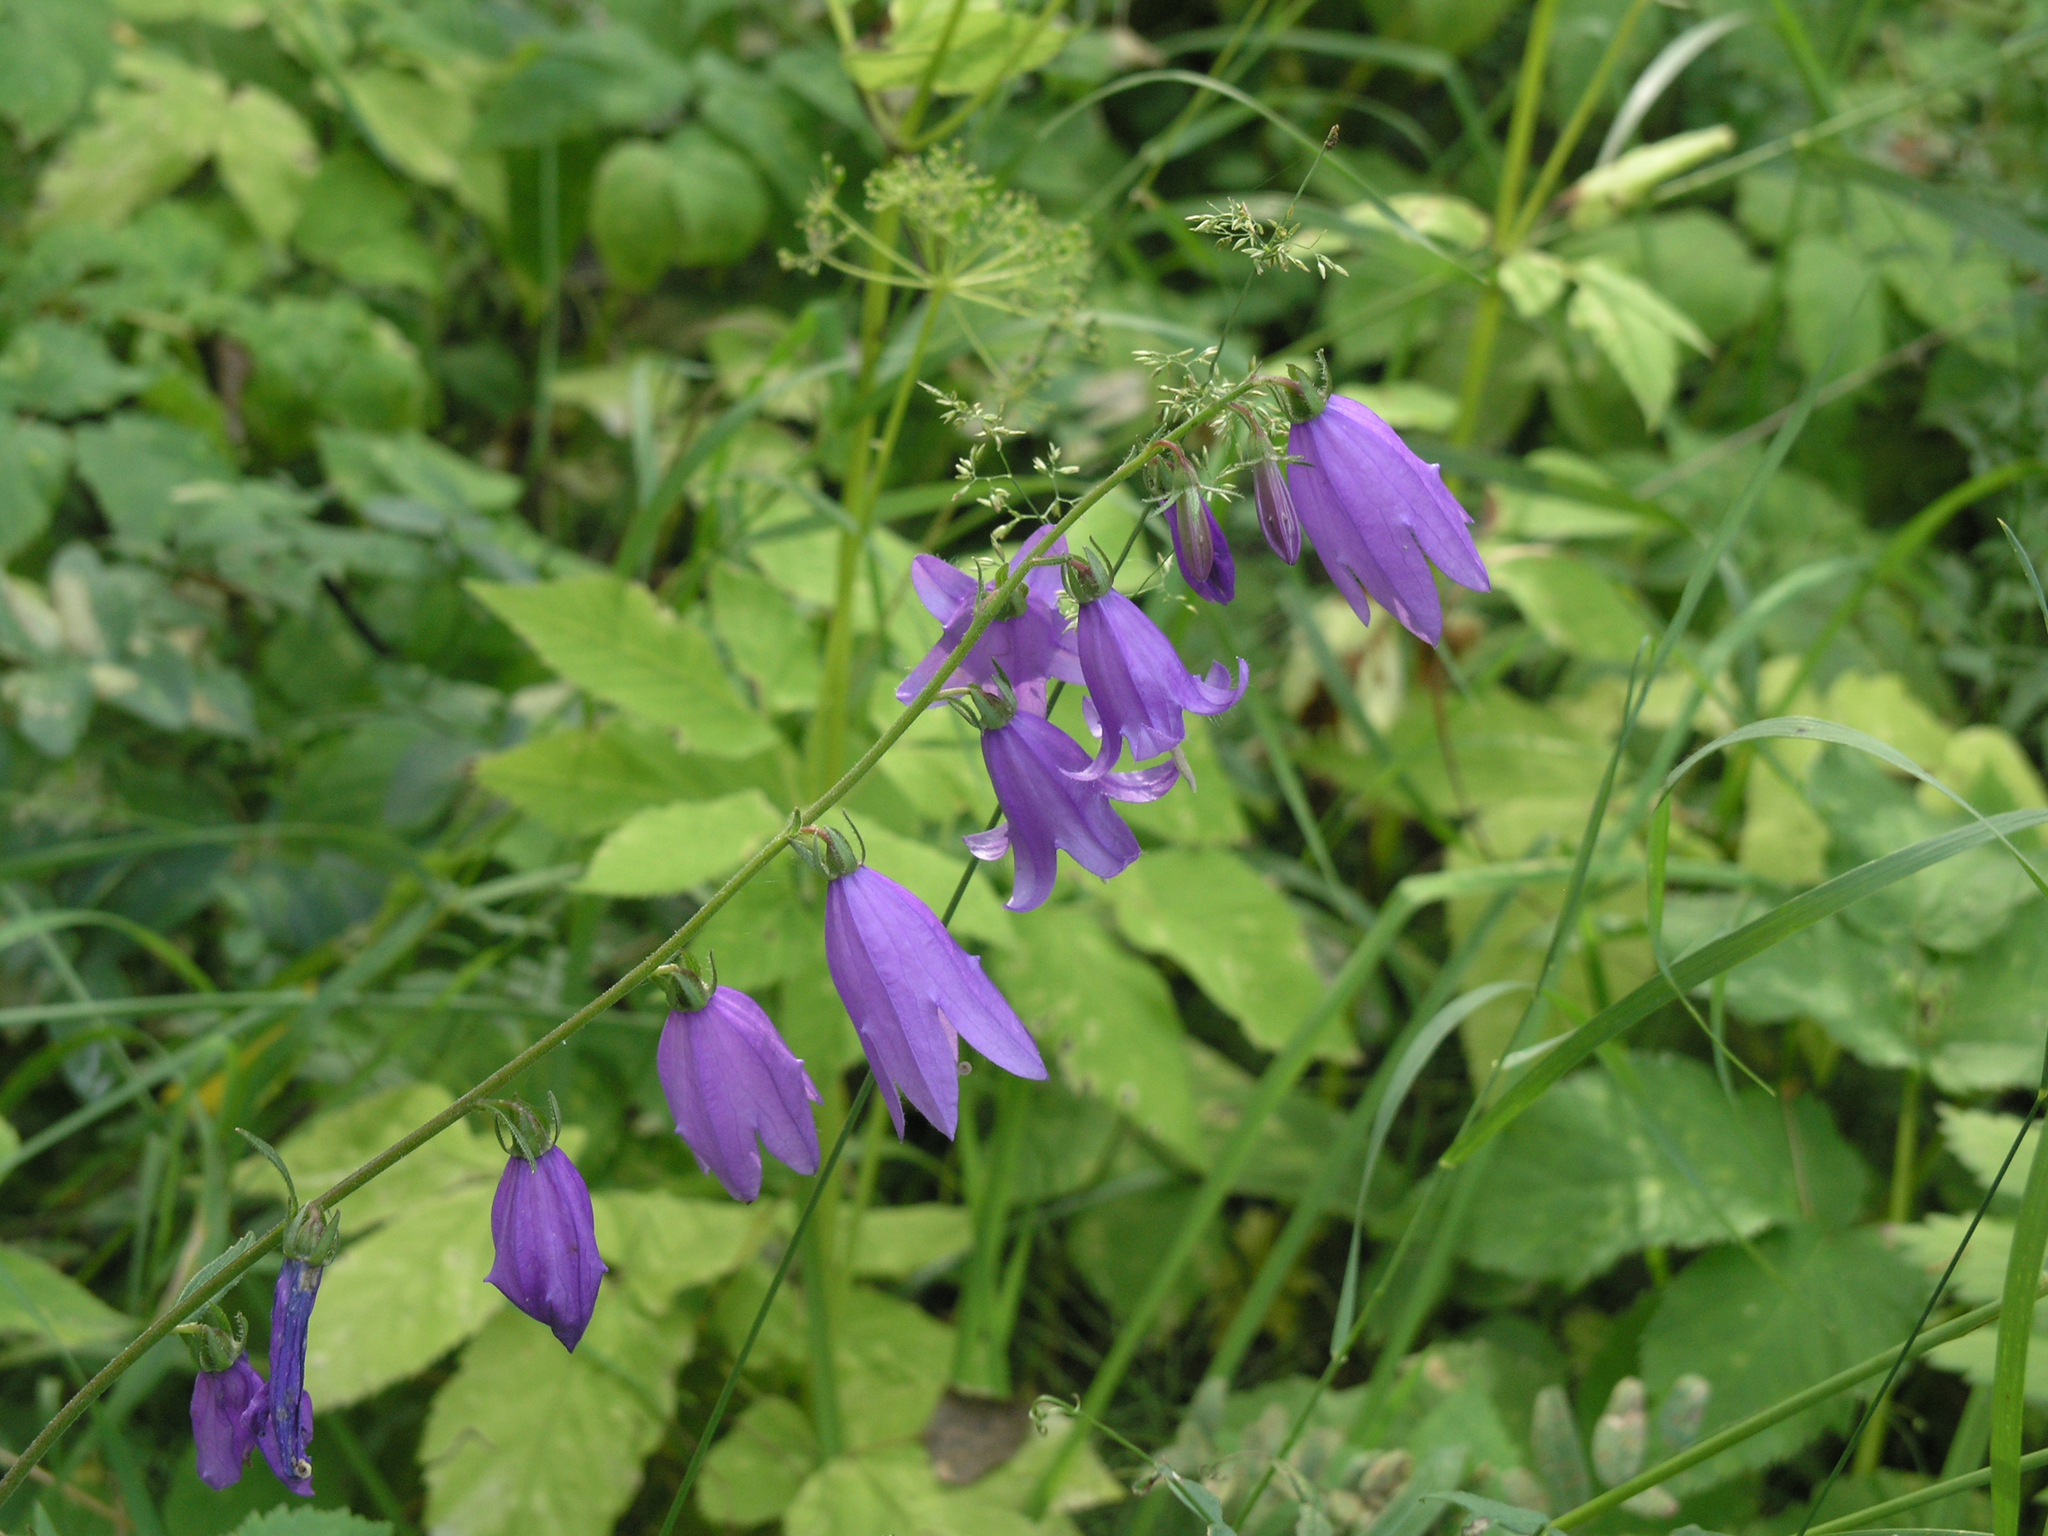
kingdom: Plantae
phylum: Tracheophyta
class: Magnoliopsida
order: Asterales
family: Campanulaceae
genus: Campanula
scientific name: Campanula rapunculoides
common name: Creeping bellflower
